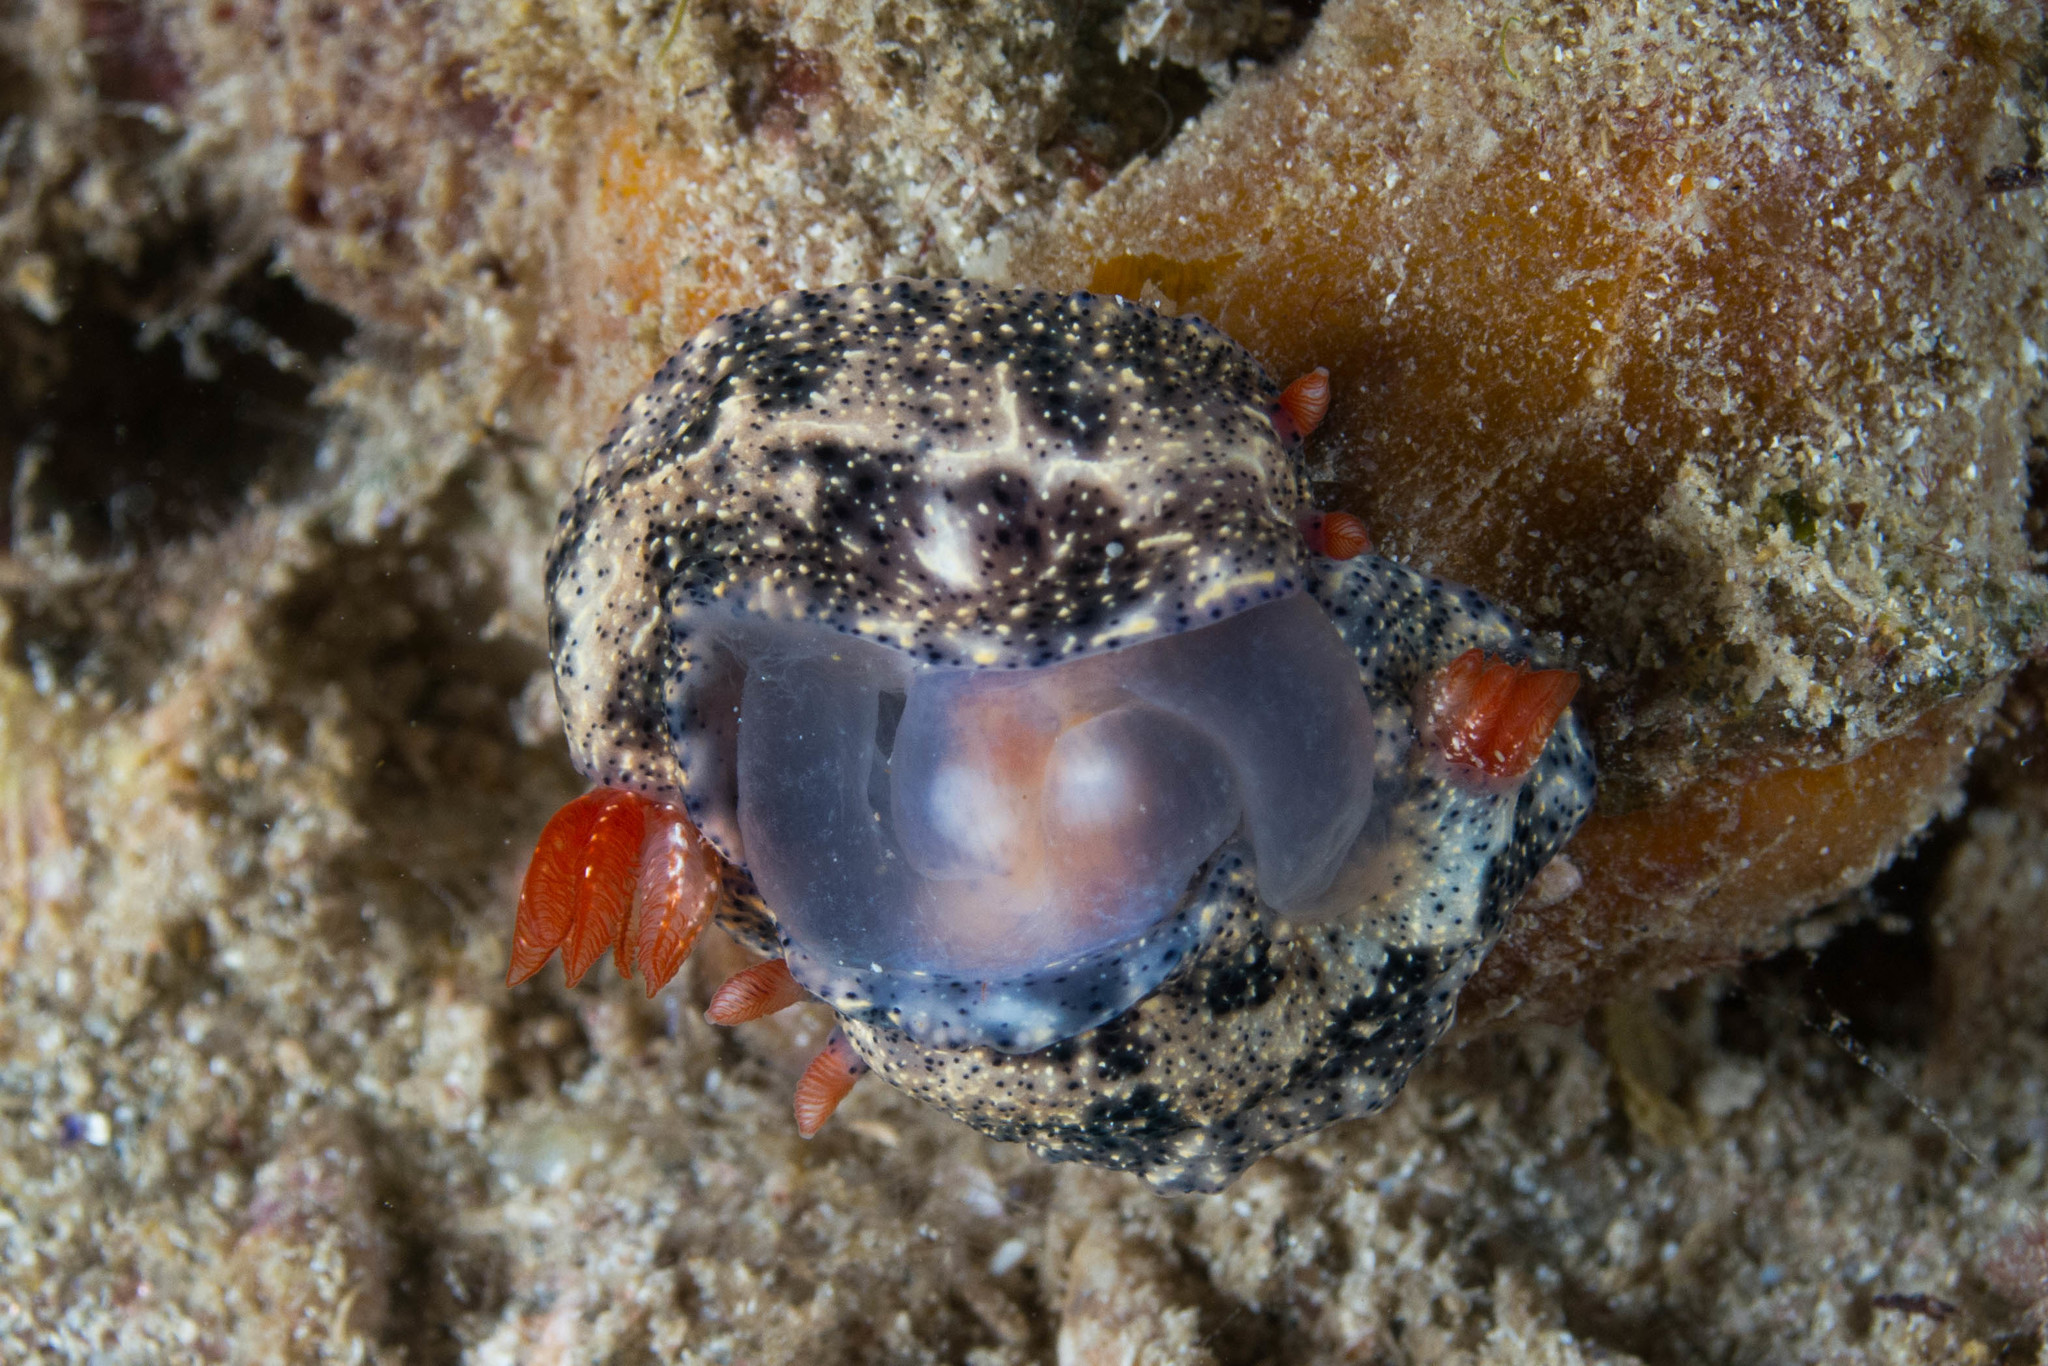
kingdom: Animalia
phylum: Mollusca
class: Gastropoda
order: Nudibranchia
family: Chromodorididae
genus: Hypselodoris
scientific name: Hypselodoris saintvincentius
